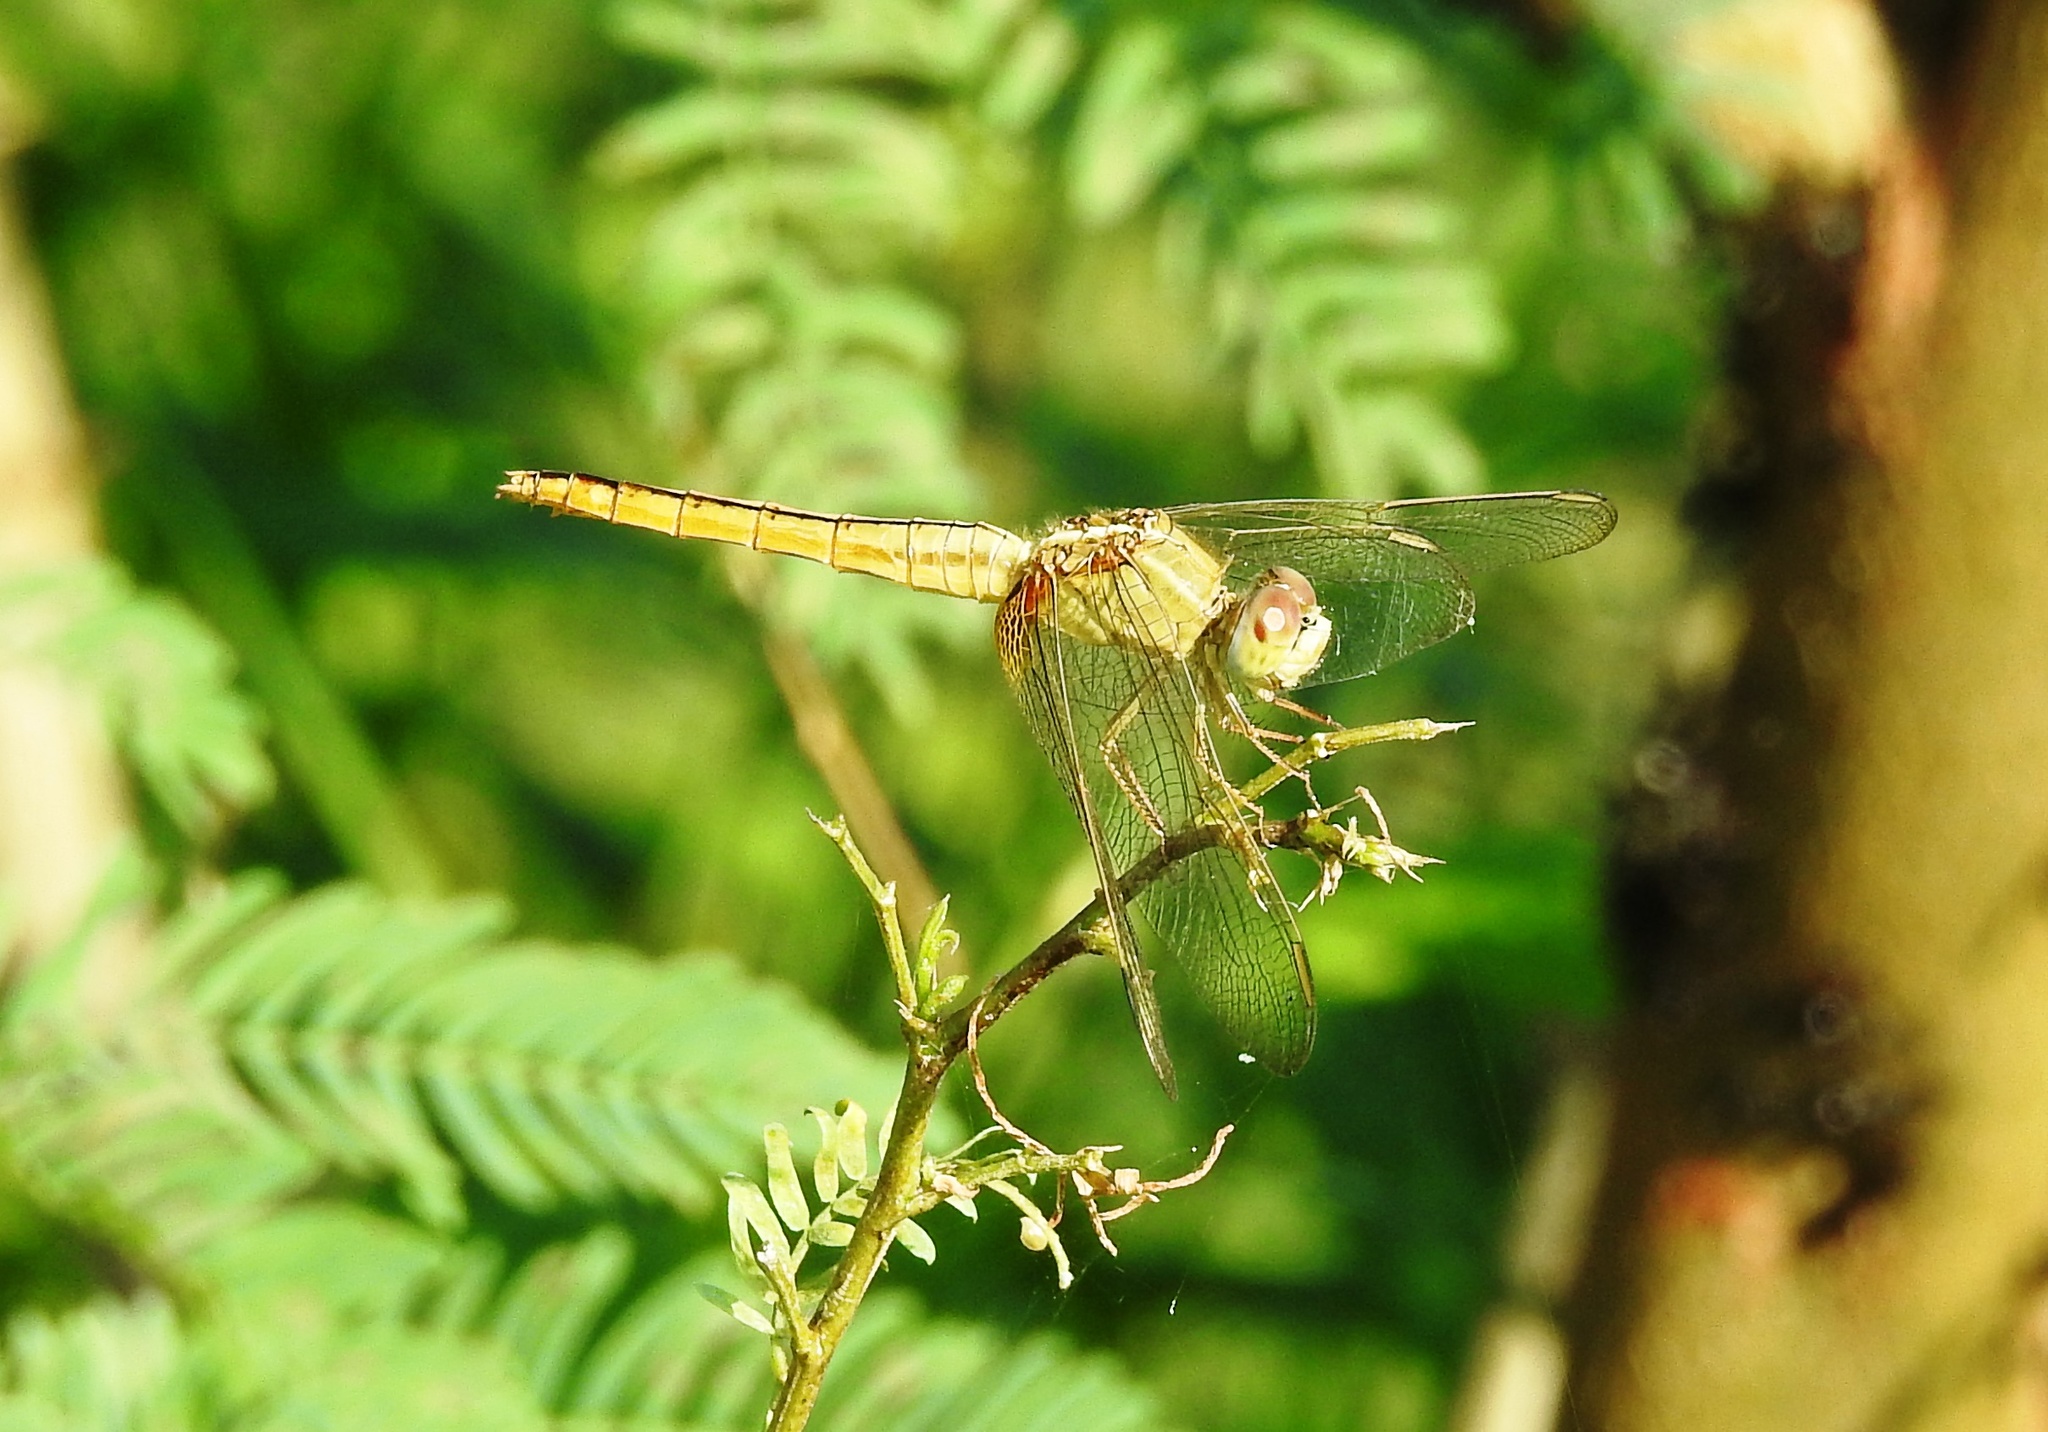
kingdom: Animalia
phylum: Arthropoda
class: Insecta
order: Odonata
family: Libellulidae
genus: Crocothemis
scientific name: Crocothemis servilia
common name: Scarlet skimmer
